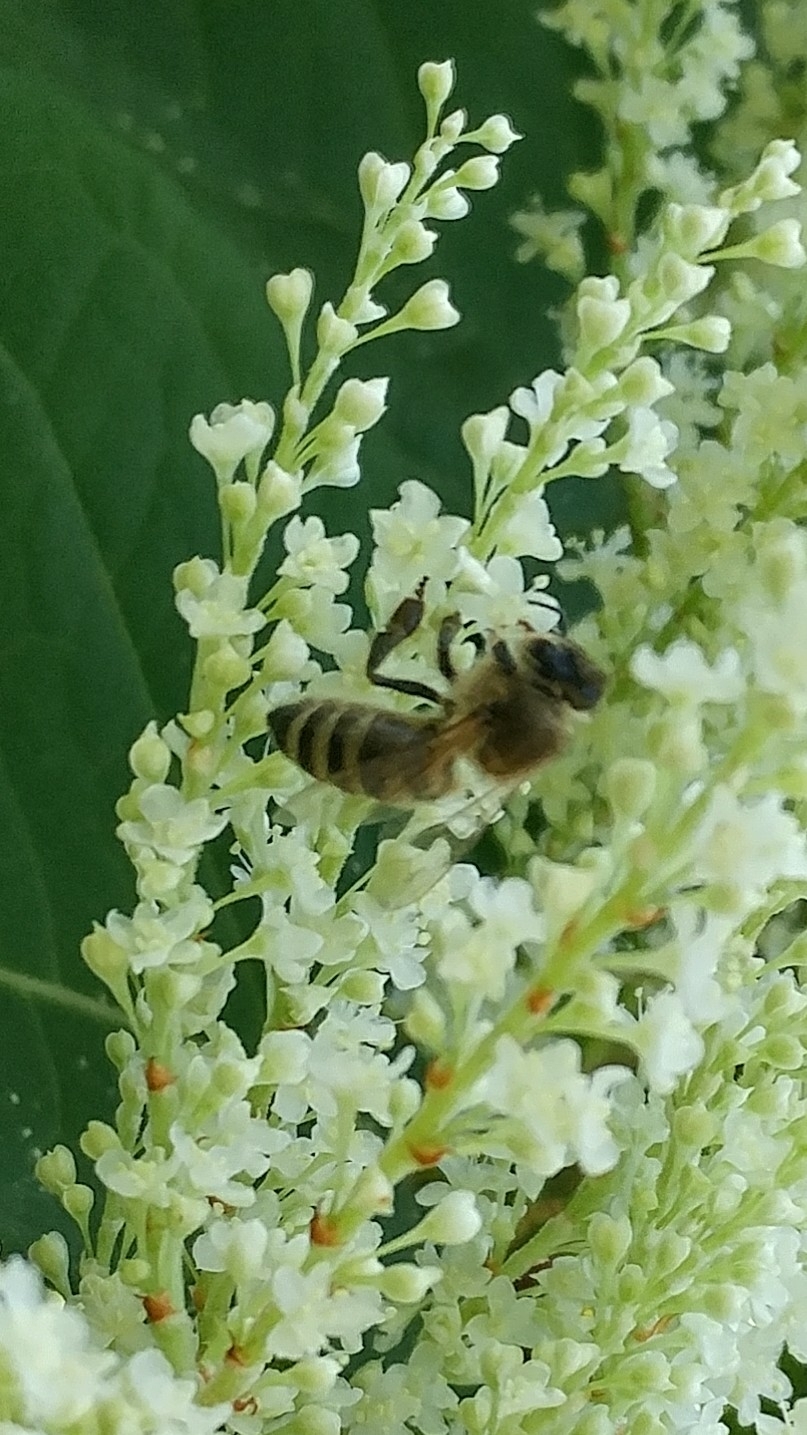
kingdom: Animalia
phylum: Arthropoda
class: Insecta
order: Hymenoptera
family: Apidae
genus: Apis
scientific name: Apis mellifera
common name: Honey bee
